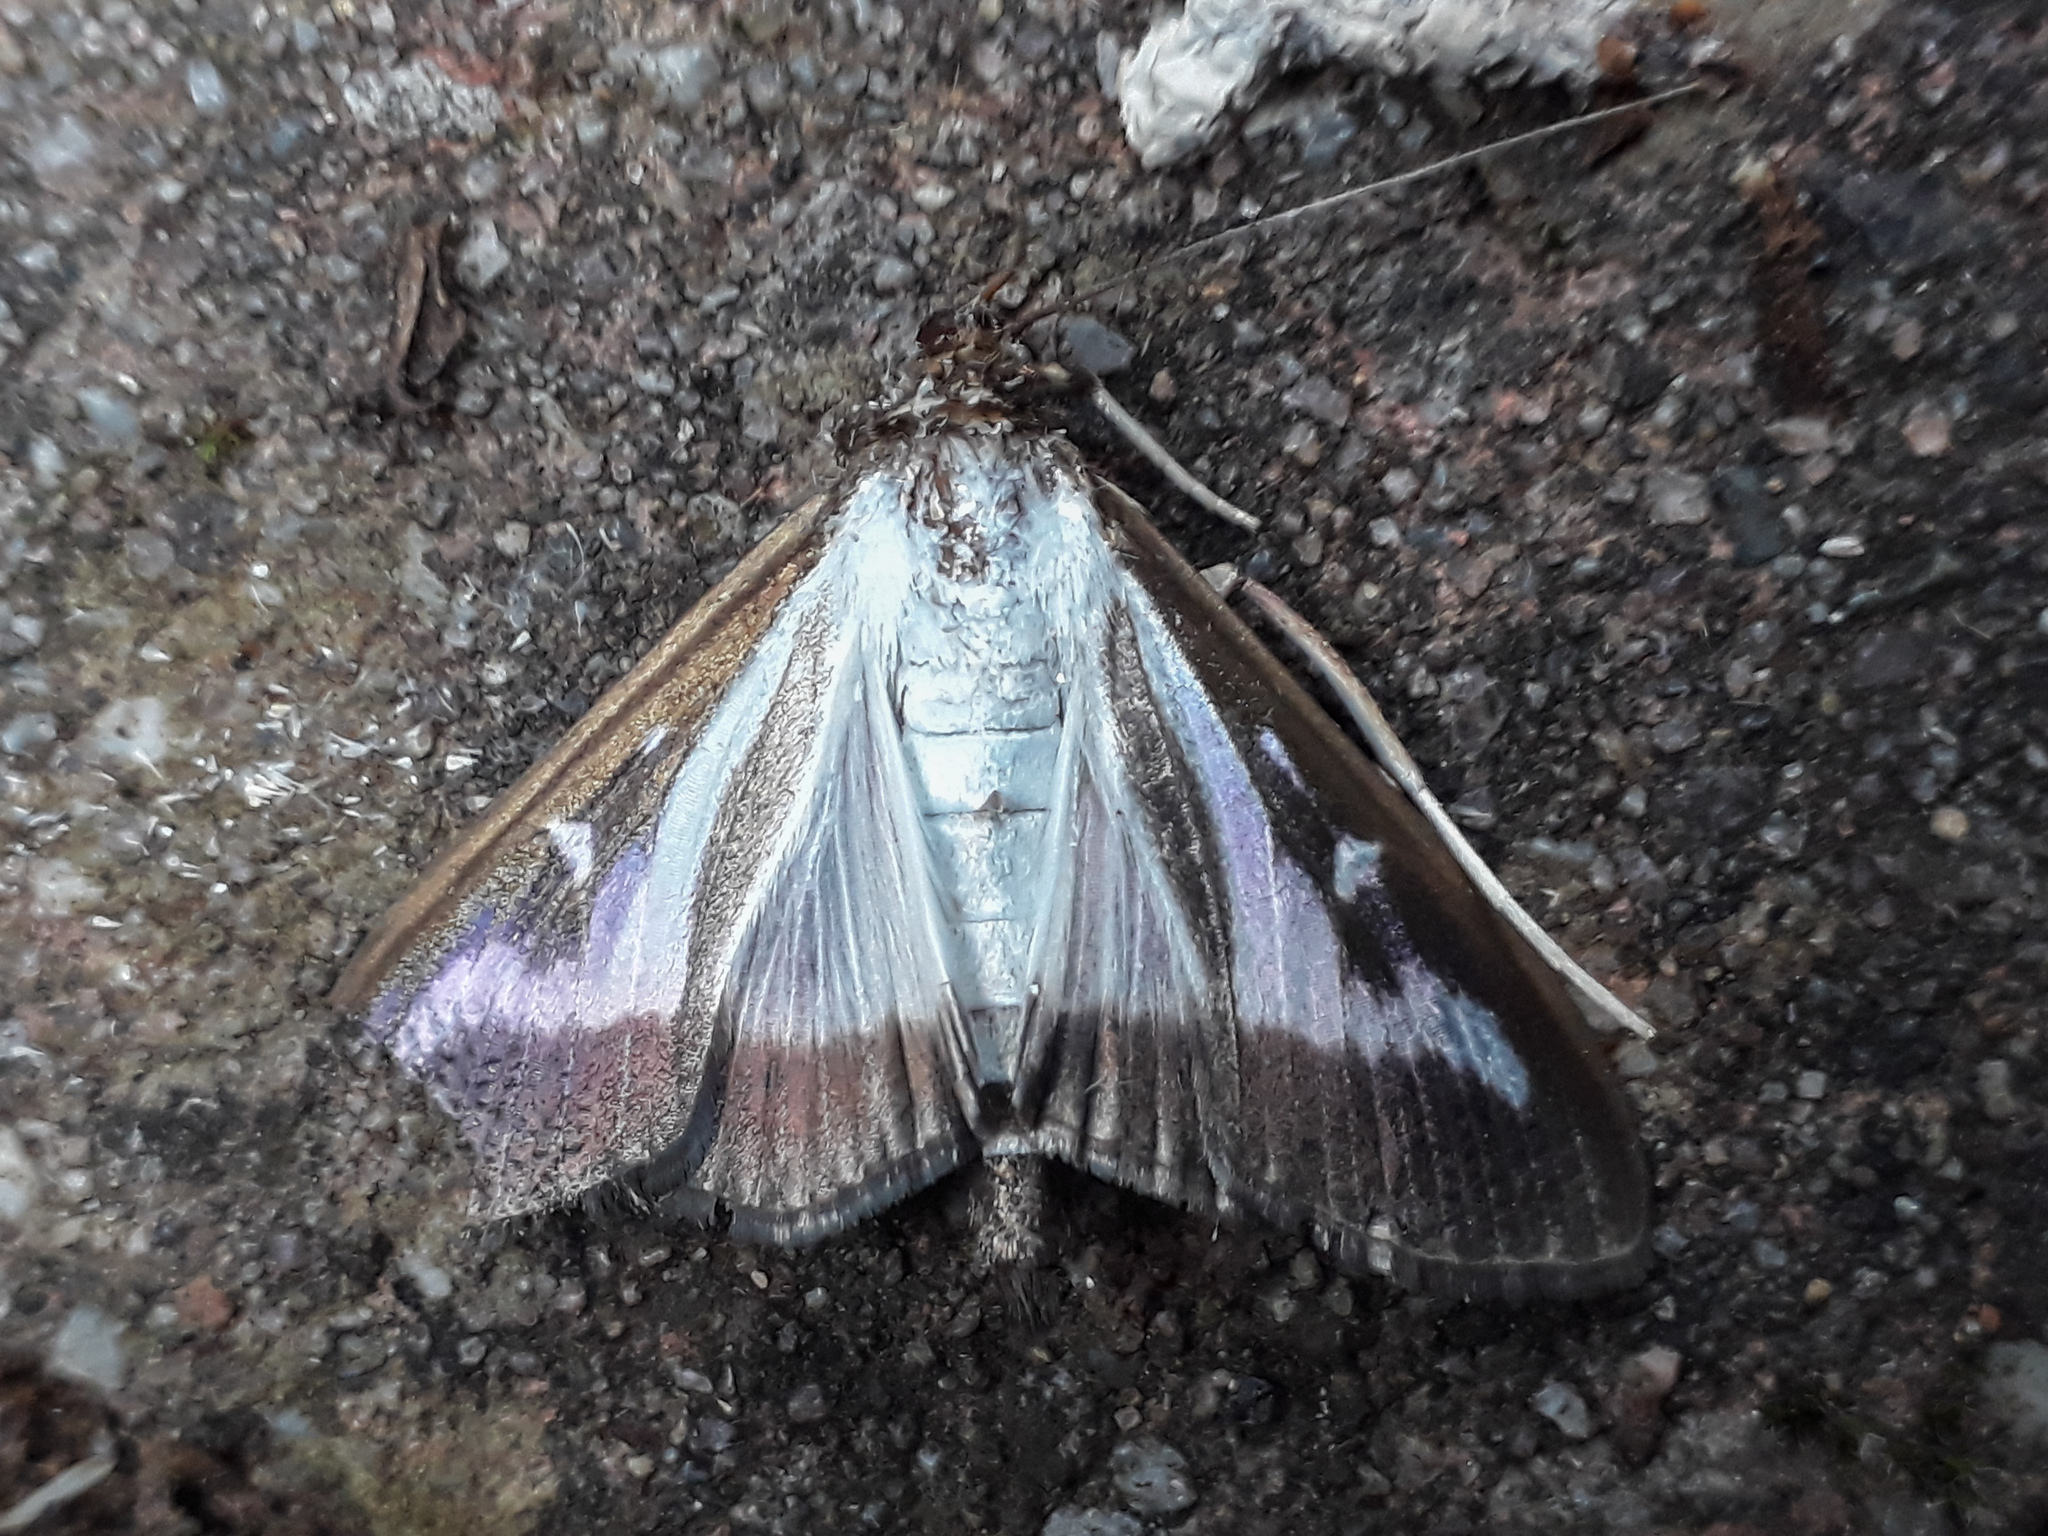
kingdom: Animalia
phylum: Arthropoda
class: Insecta
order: Lepidoptera
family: Crambidae
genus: Cydalima
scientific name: Cydalima perspectalis
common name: Box tree moth
